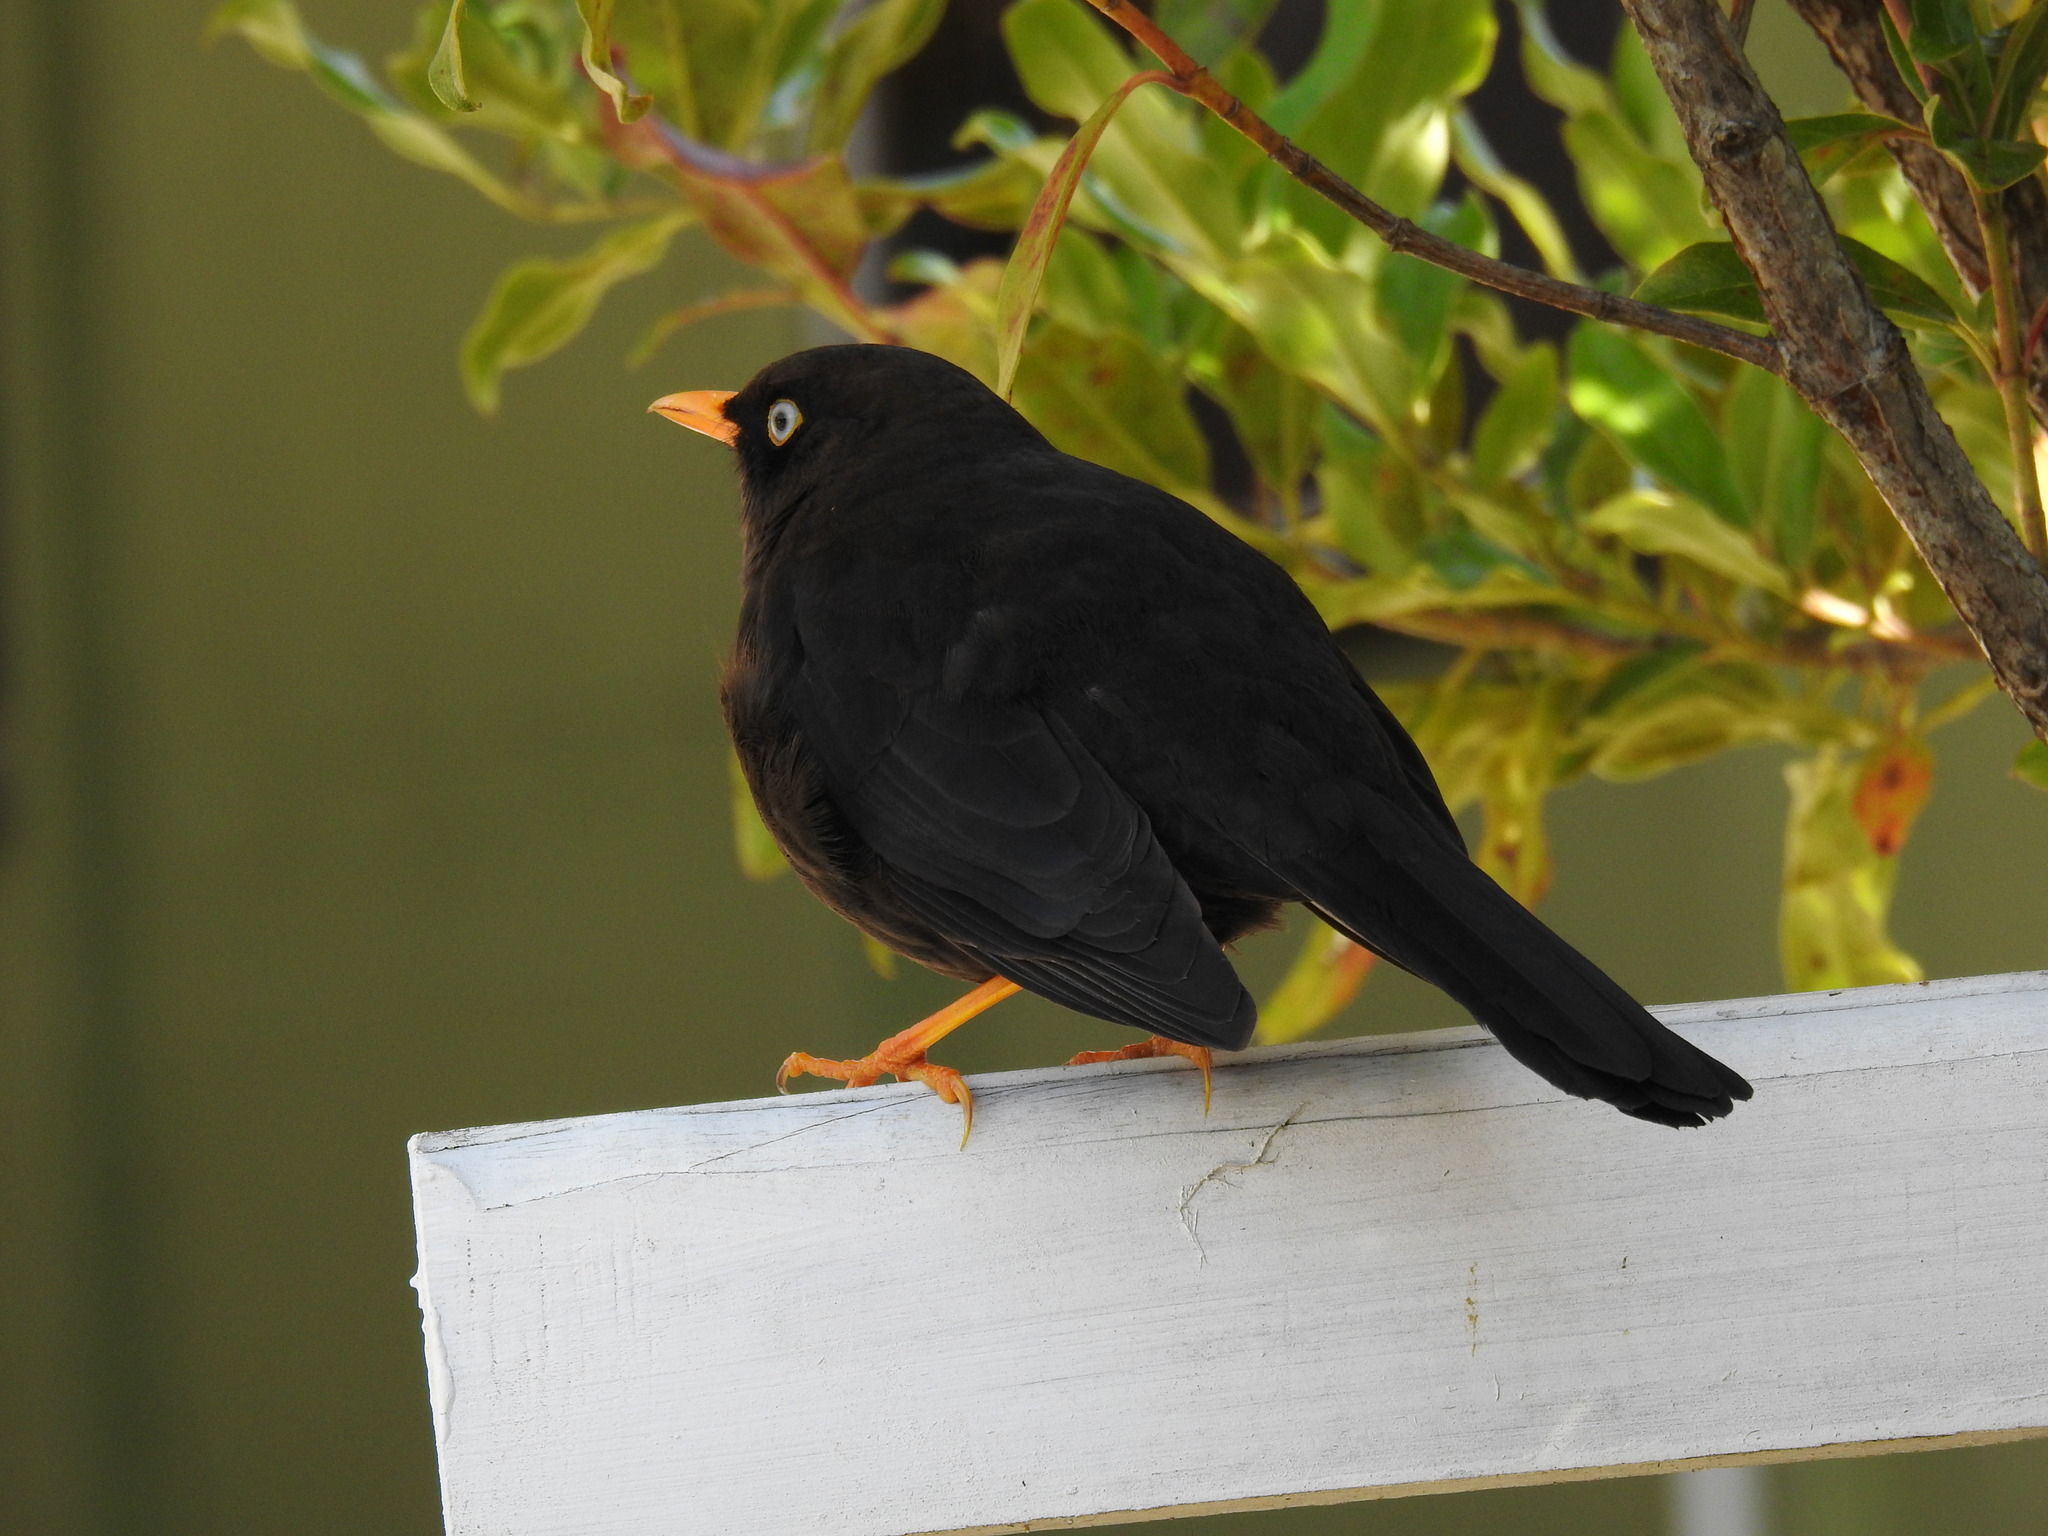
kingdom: Animalia
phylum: Chordata
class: Aves
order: Passeriformes
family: Turdidae
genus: Turdus
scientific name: Turdus nigrescens
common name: Sooty thrush
